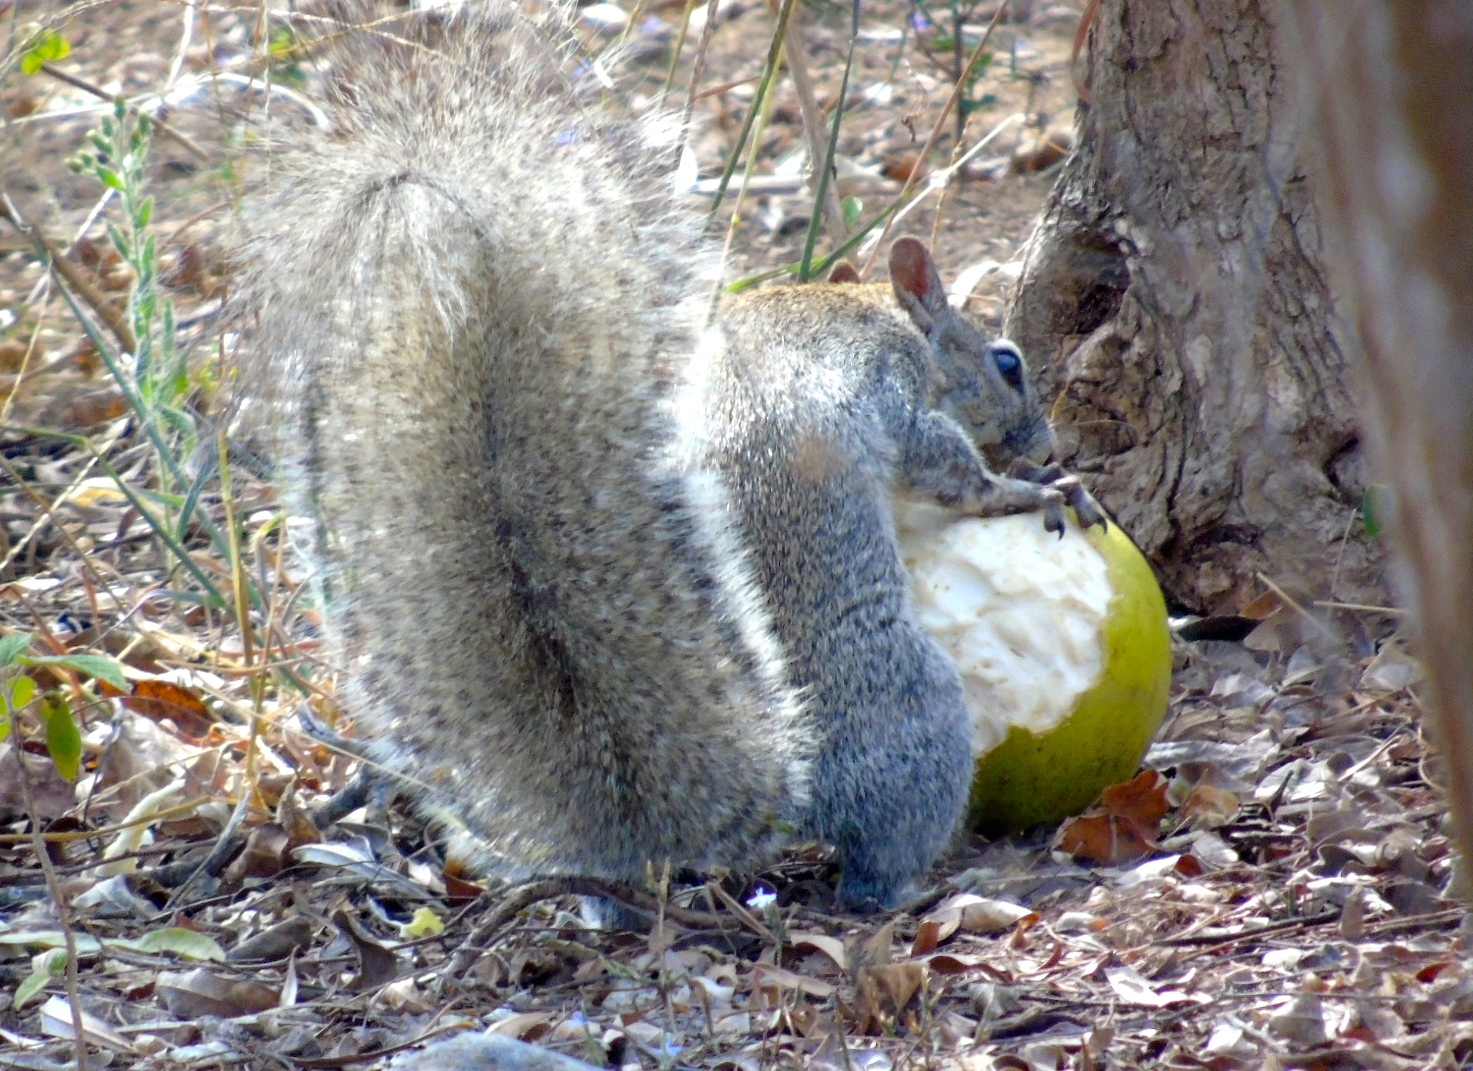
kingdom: Animalia
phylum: Chordata
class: Mammalia
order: Rodentia
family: Sciuridae
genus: Sciurus
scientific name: Sciurus colliaei
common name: Collie's squirrel
